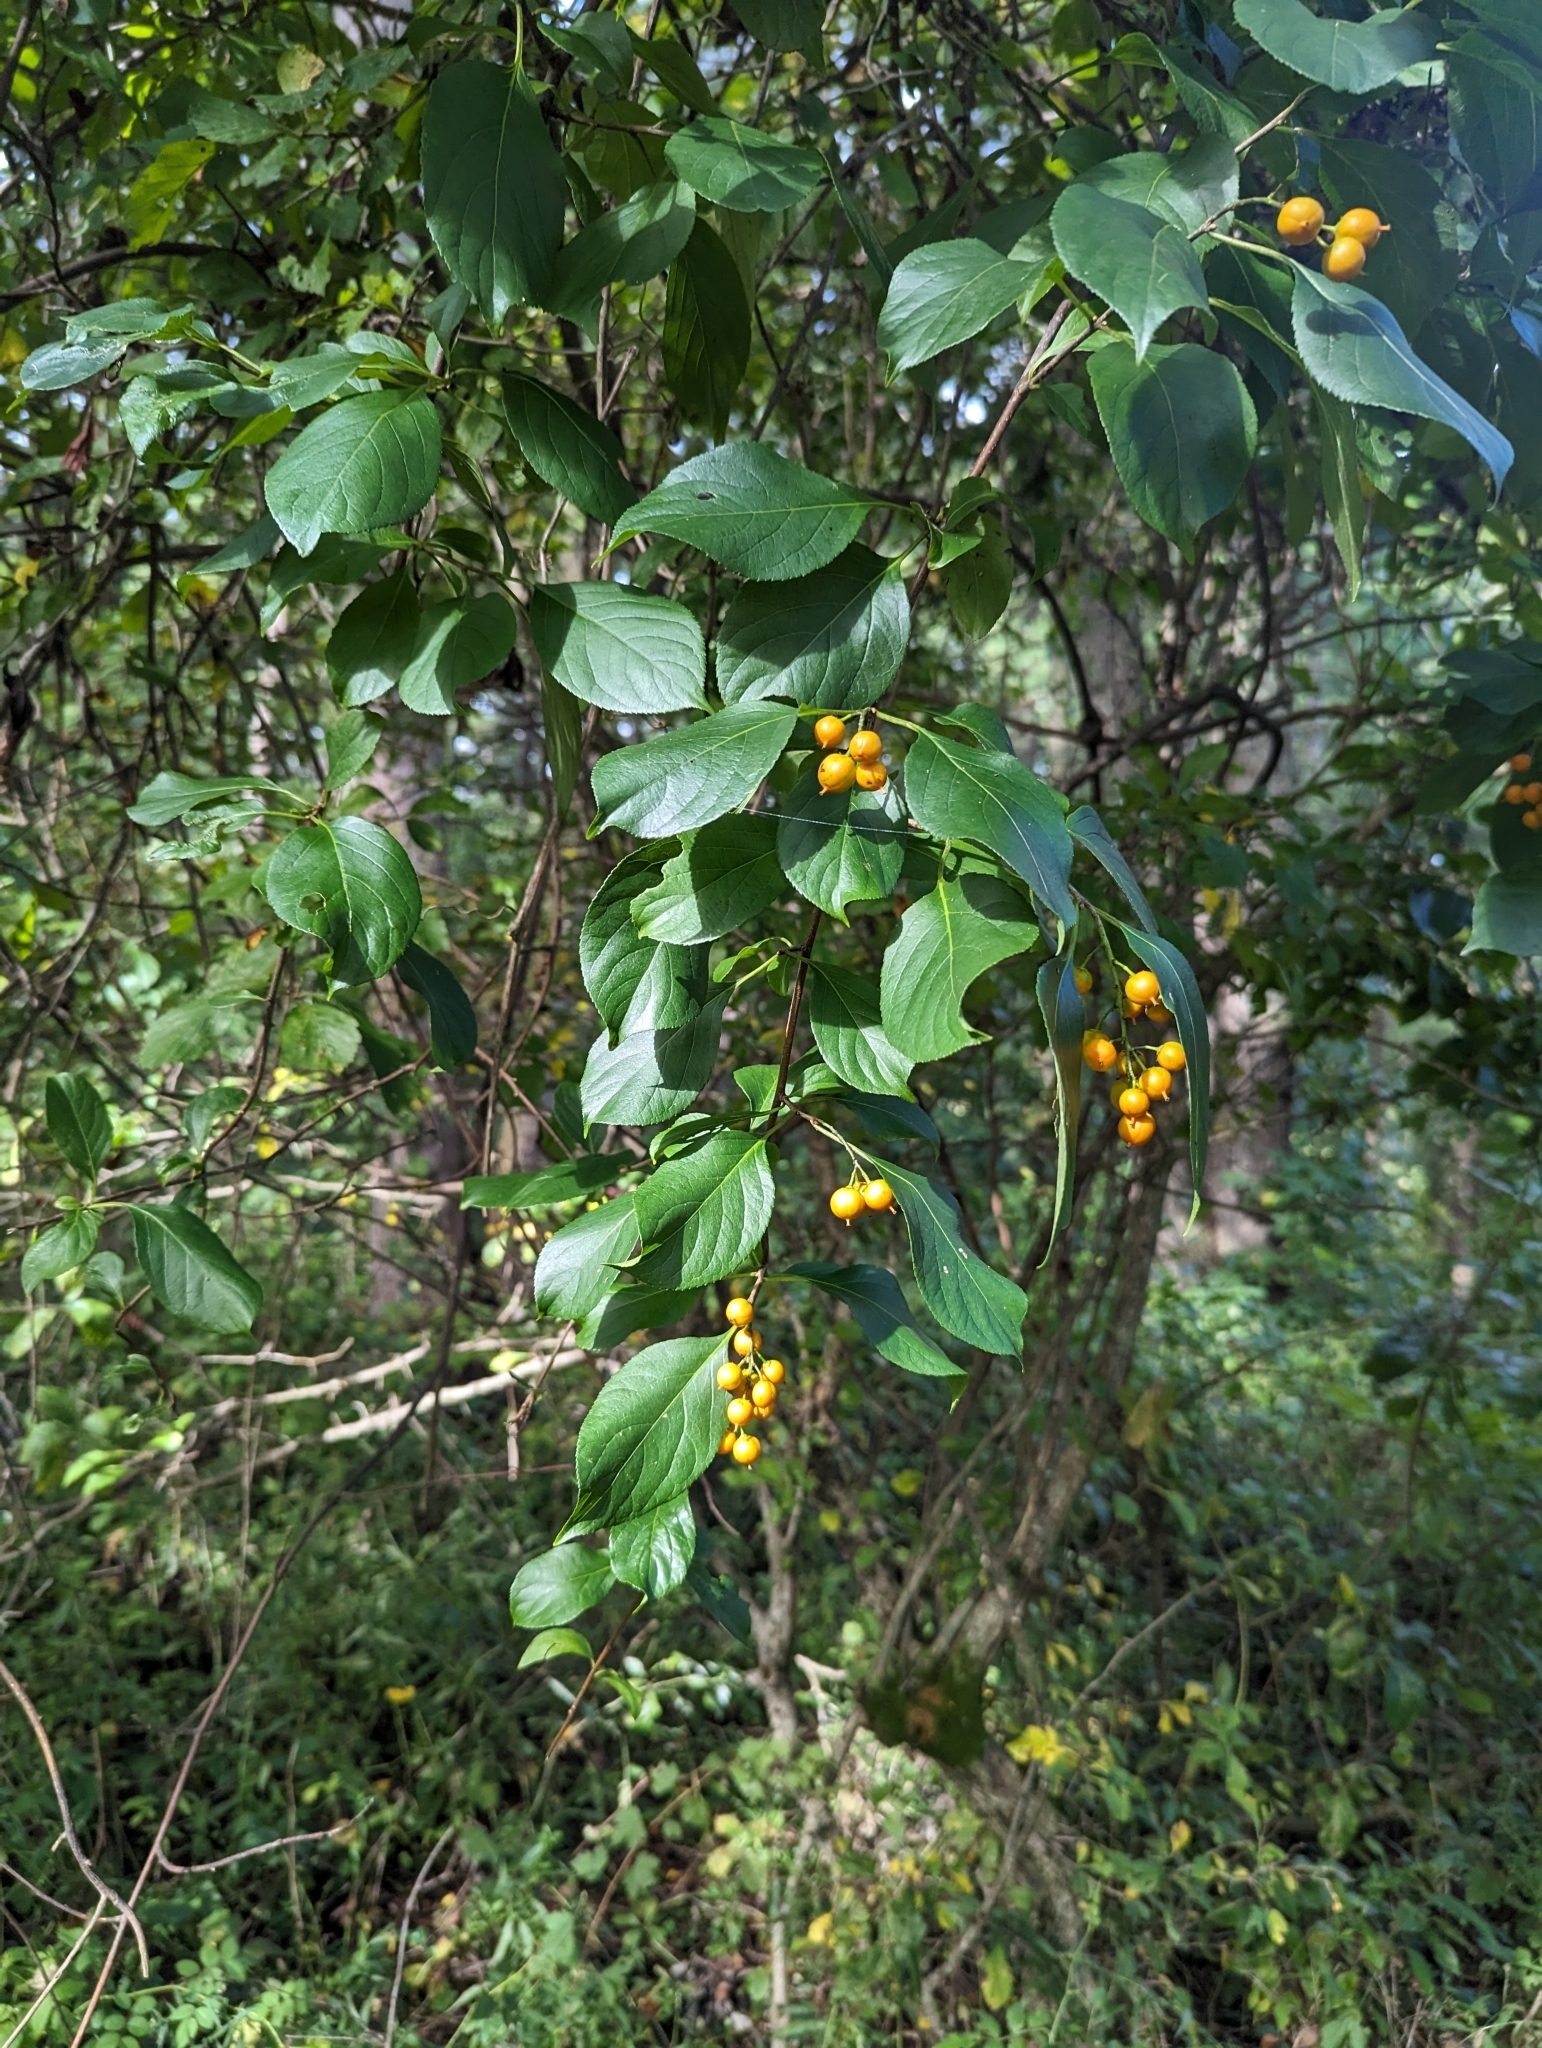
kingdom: Plantae
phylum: Tracheophyta
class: Magnoliopsida
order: Celastrales
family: Celastraceae
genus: Celastrus
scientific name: Celastrus scandens
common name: American bittersweet
